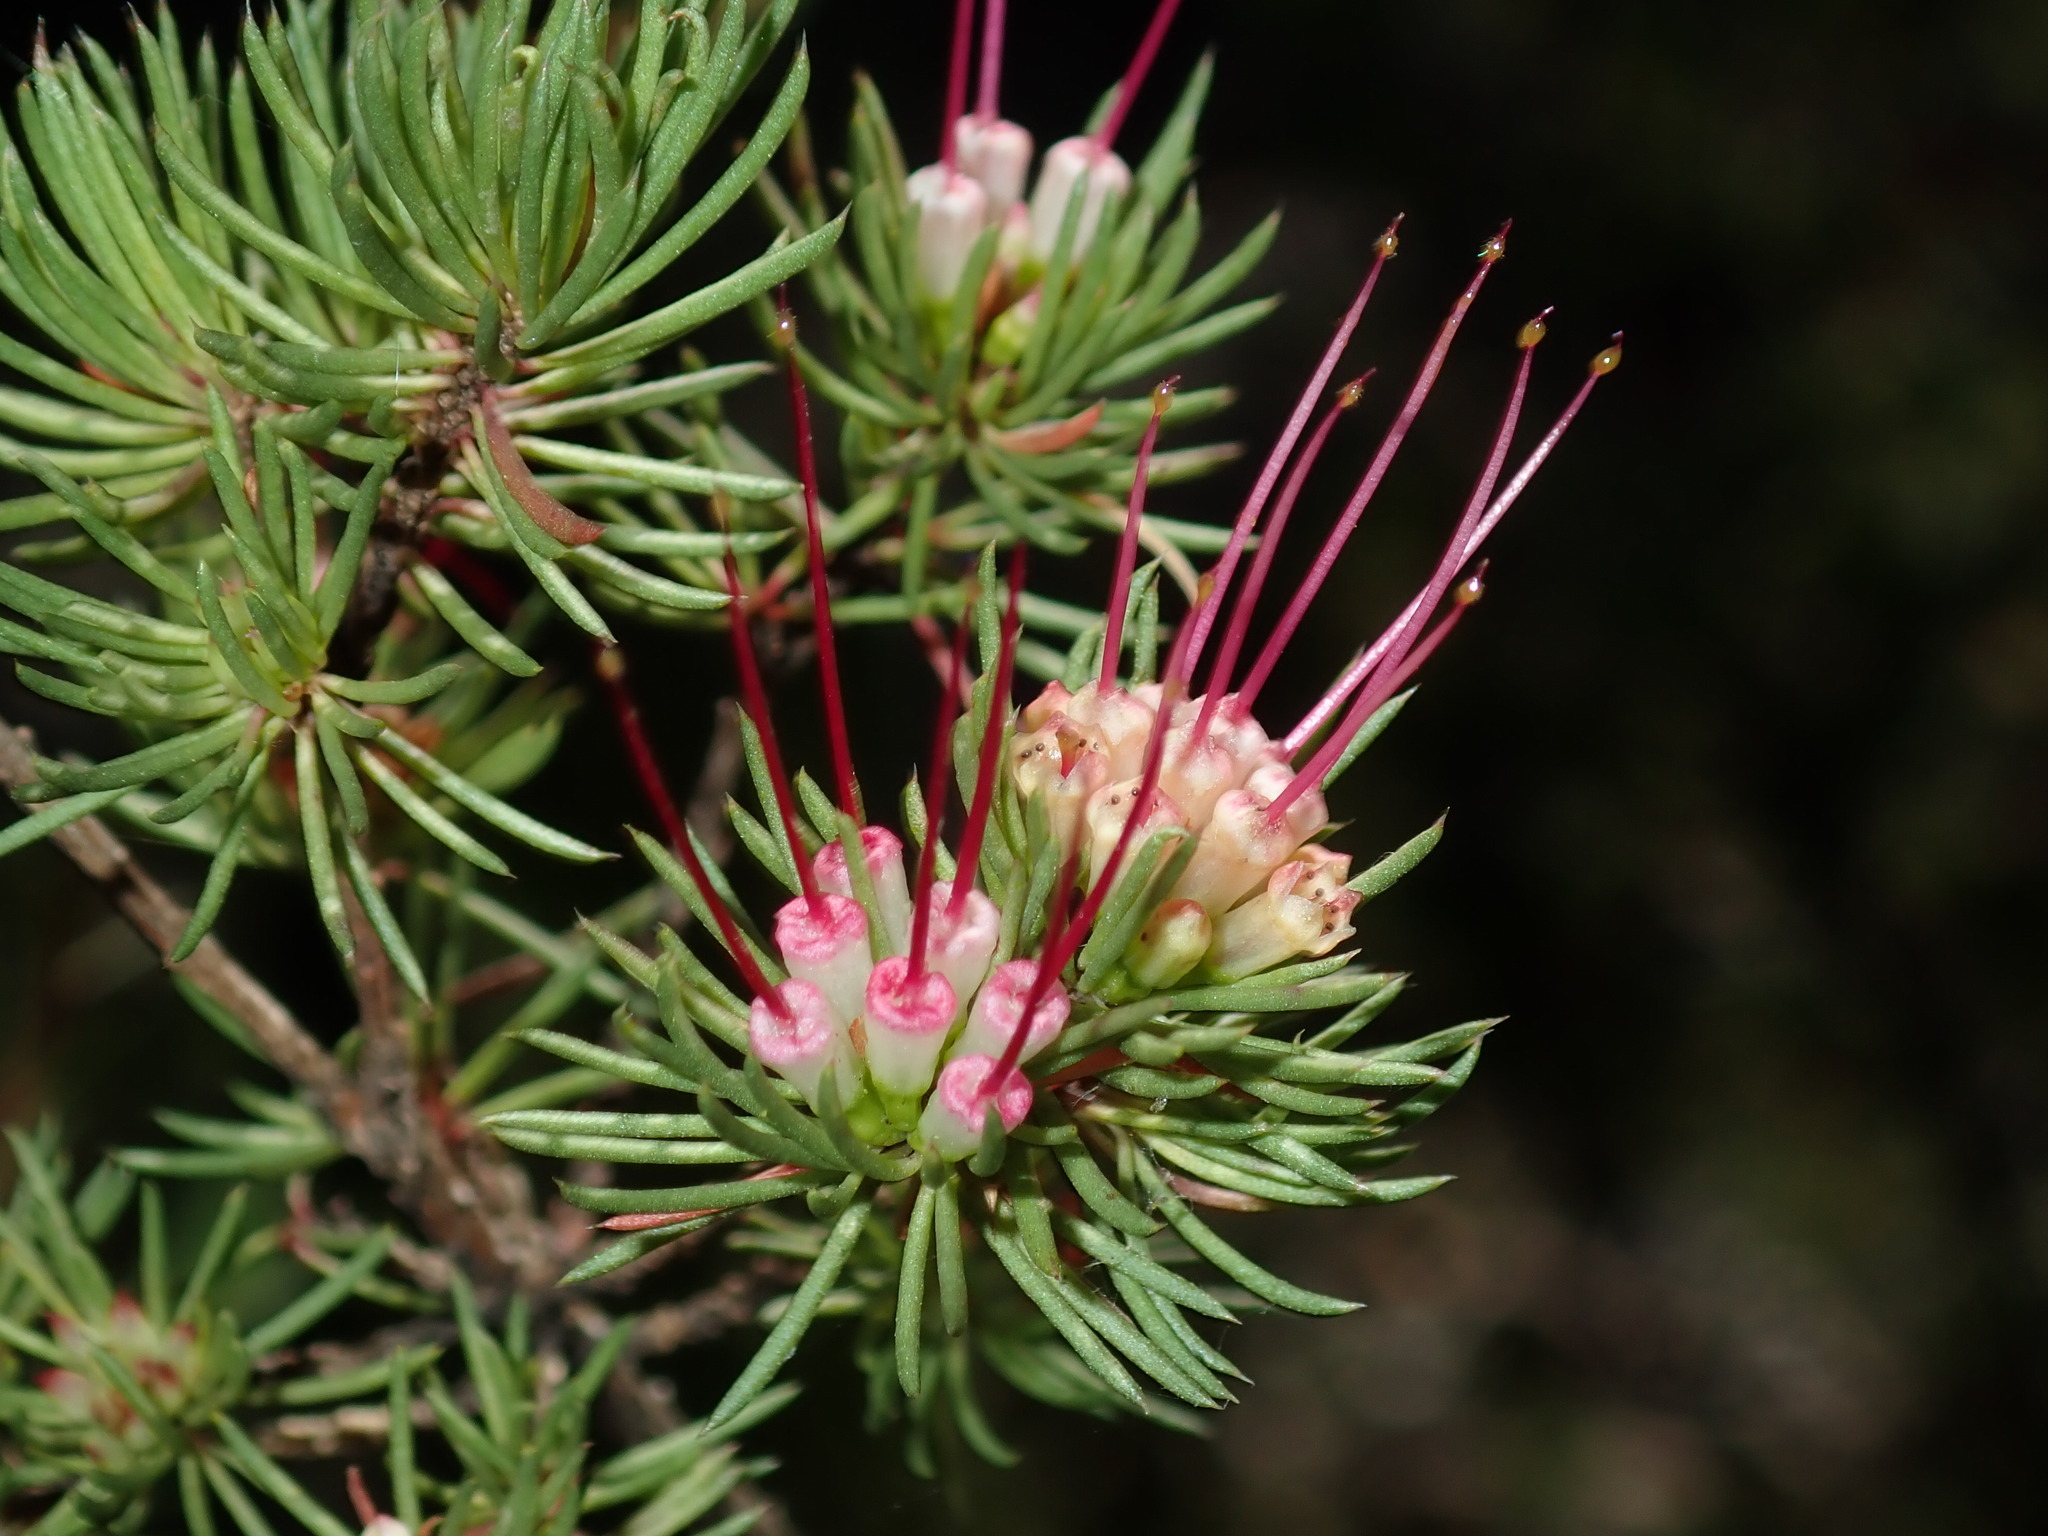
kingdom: Plantae
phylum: Tracheophyta
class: Magnoliopsida
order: Myrtales
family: Myrtaceae
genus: Darwinia
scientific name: Darwinia fascicularis
